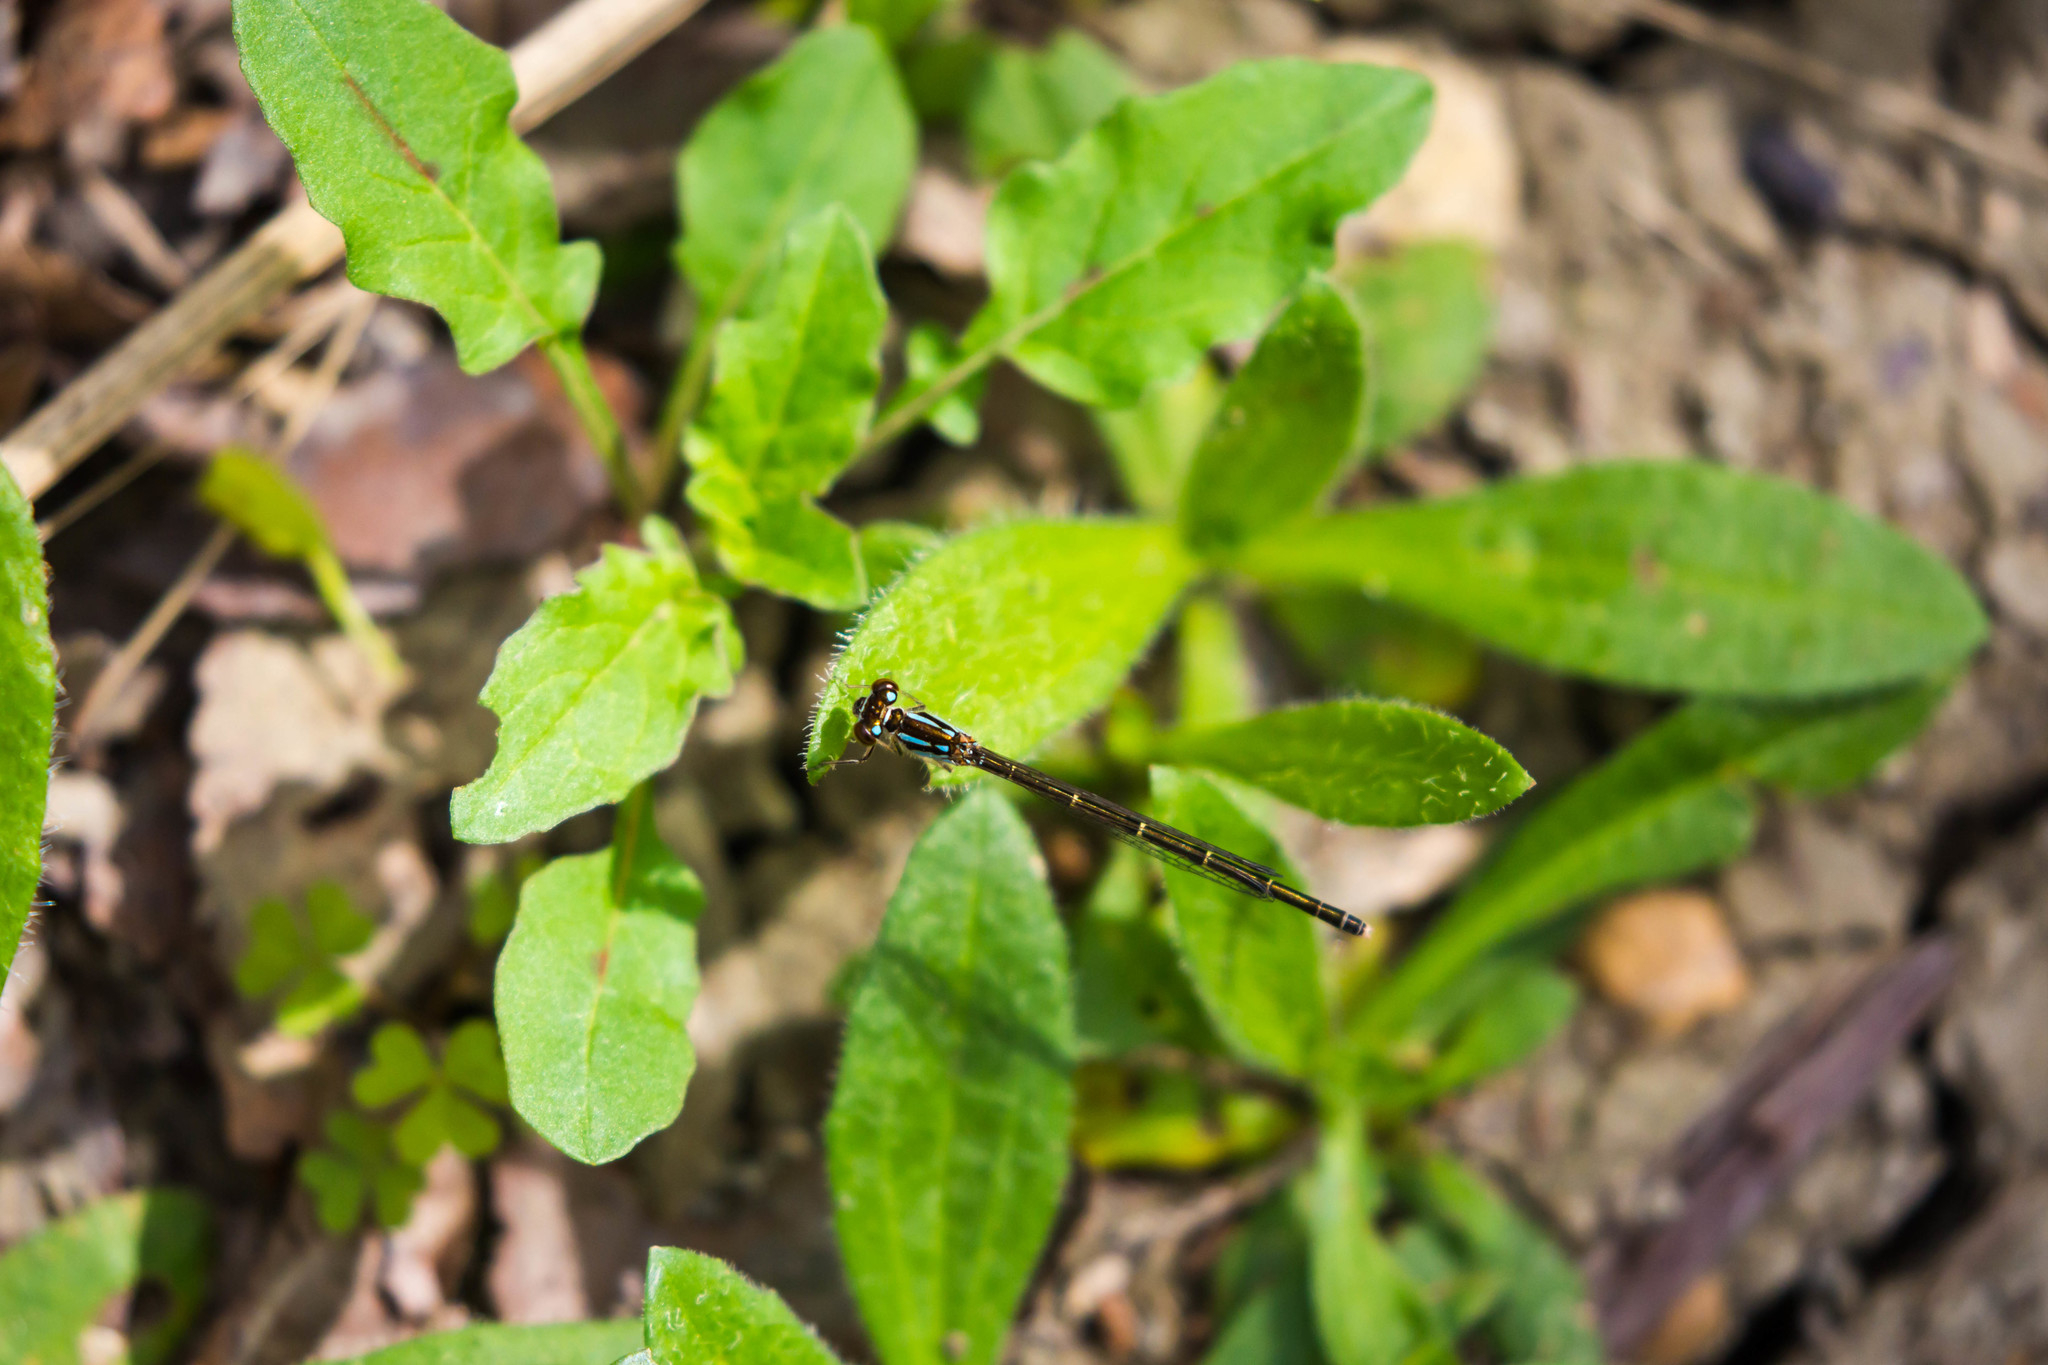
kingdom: Animalia
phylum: Arthropoda
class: Insecta
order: Odonata
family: Coenagrionidae
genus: Ischnura
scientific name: Ischnura posita
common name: Fragile forktail
